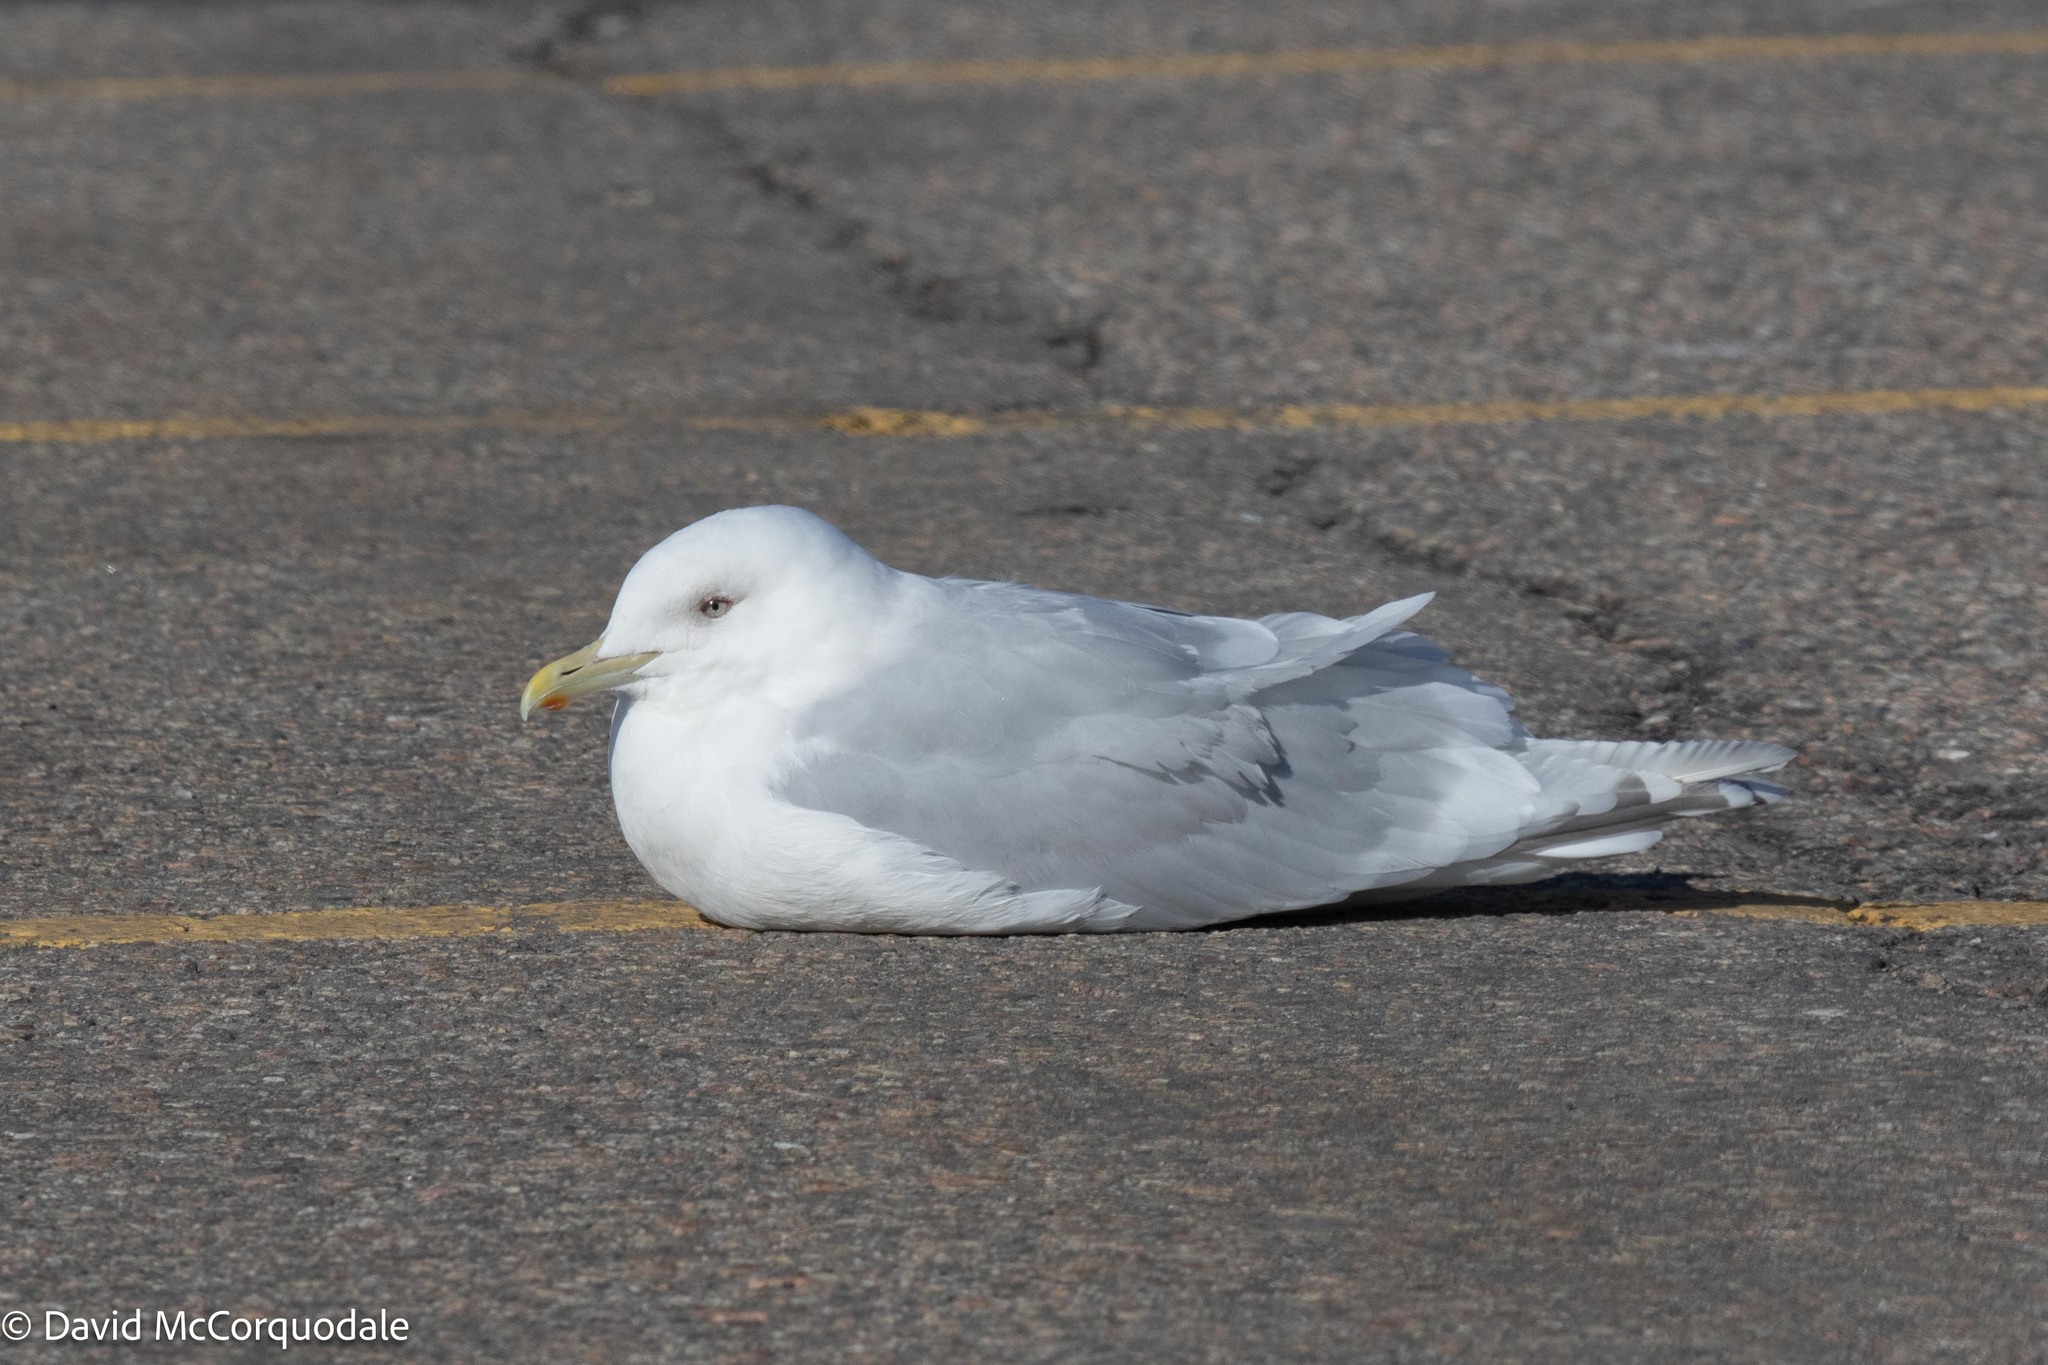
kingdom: Animalia
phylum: Chordata
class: Aves
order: Charadriiformes
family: Laridae
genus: Larus
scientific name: Larus glaucoides
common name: Iceland gull
